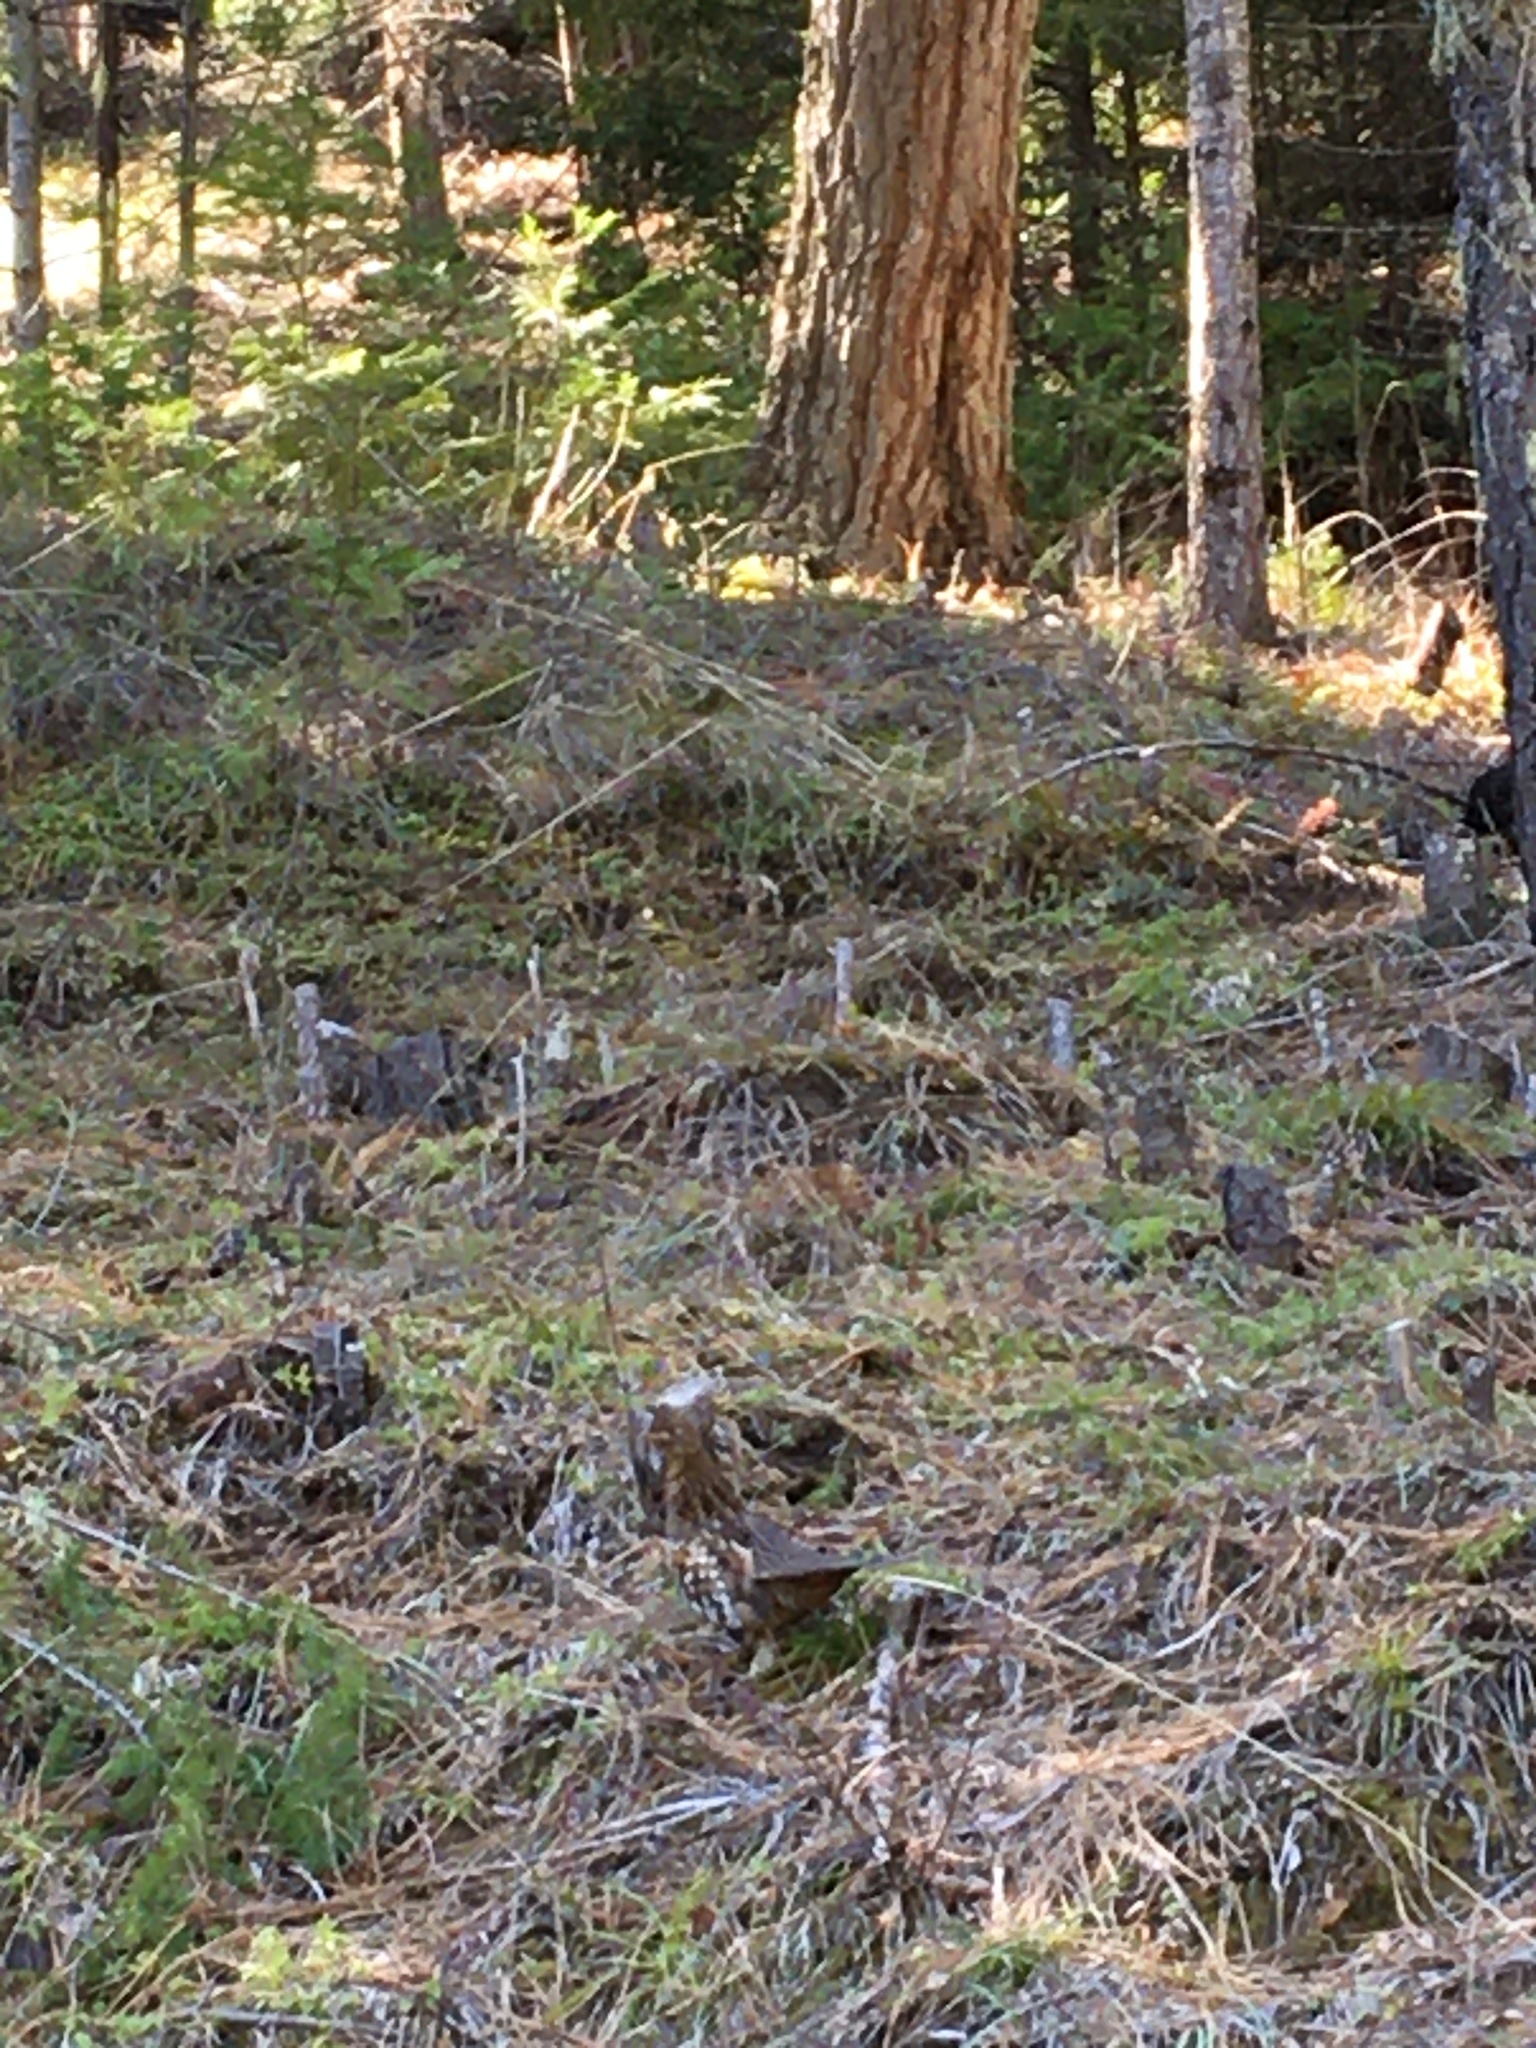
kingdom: Animalia
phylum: Chordata
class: Aves
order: Galliformes
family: Phasianidae
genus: Bonasa
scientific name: Bonasa umbellus
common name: Ruffed grouse
